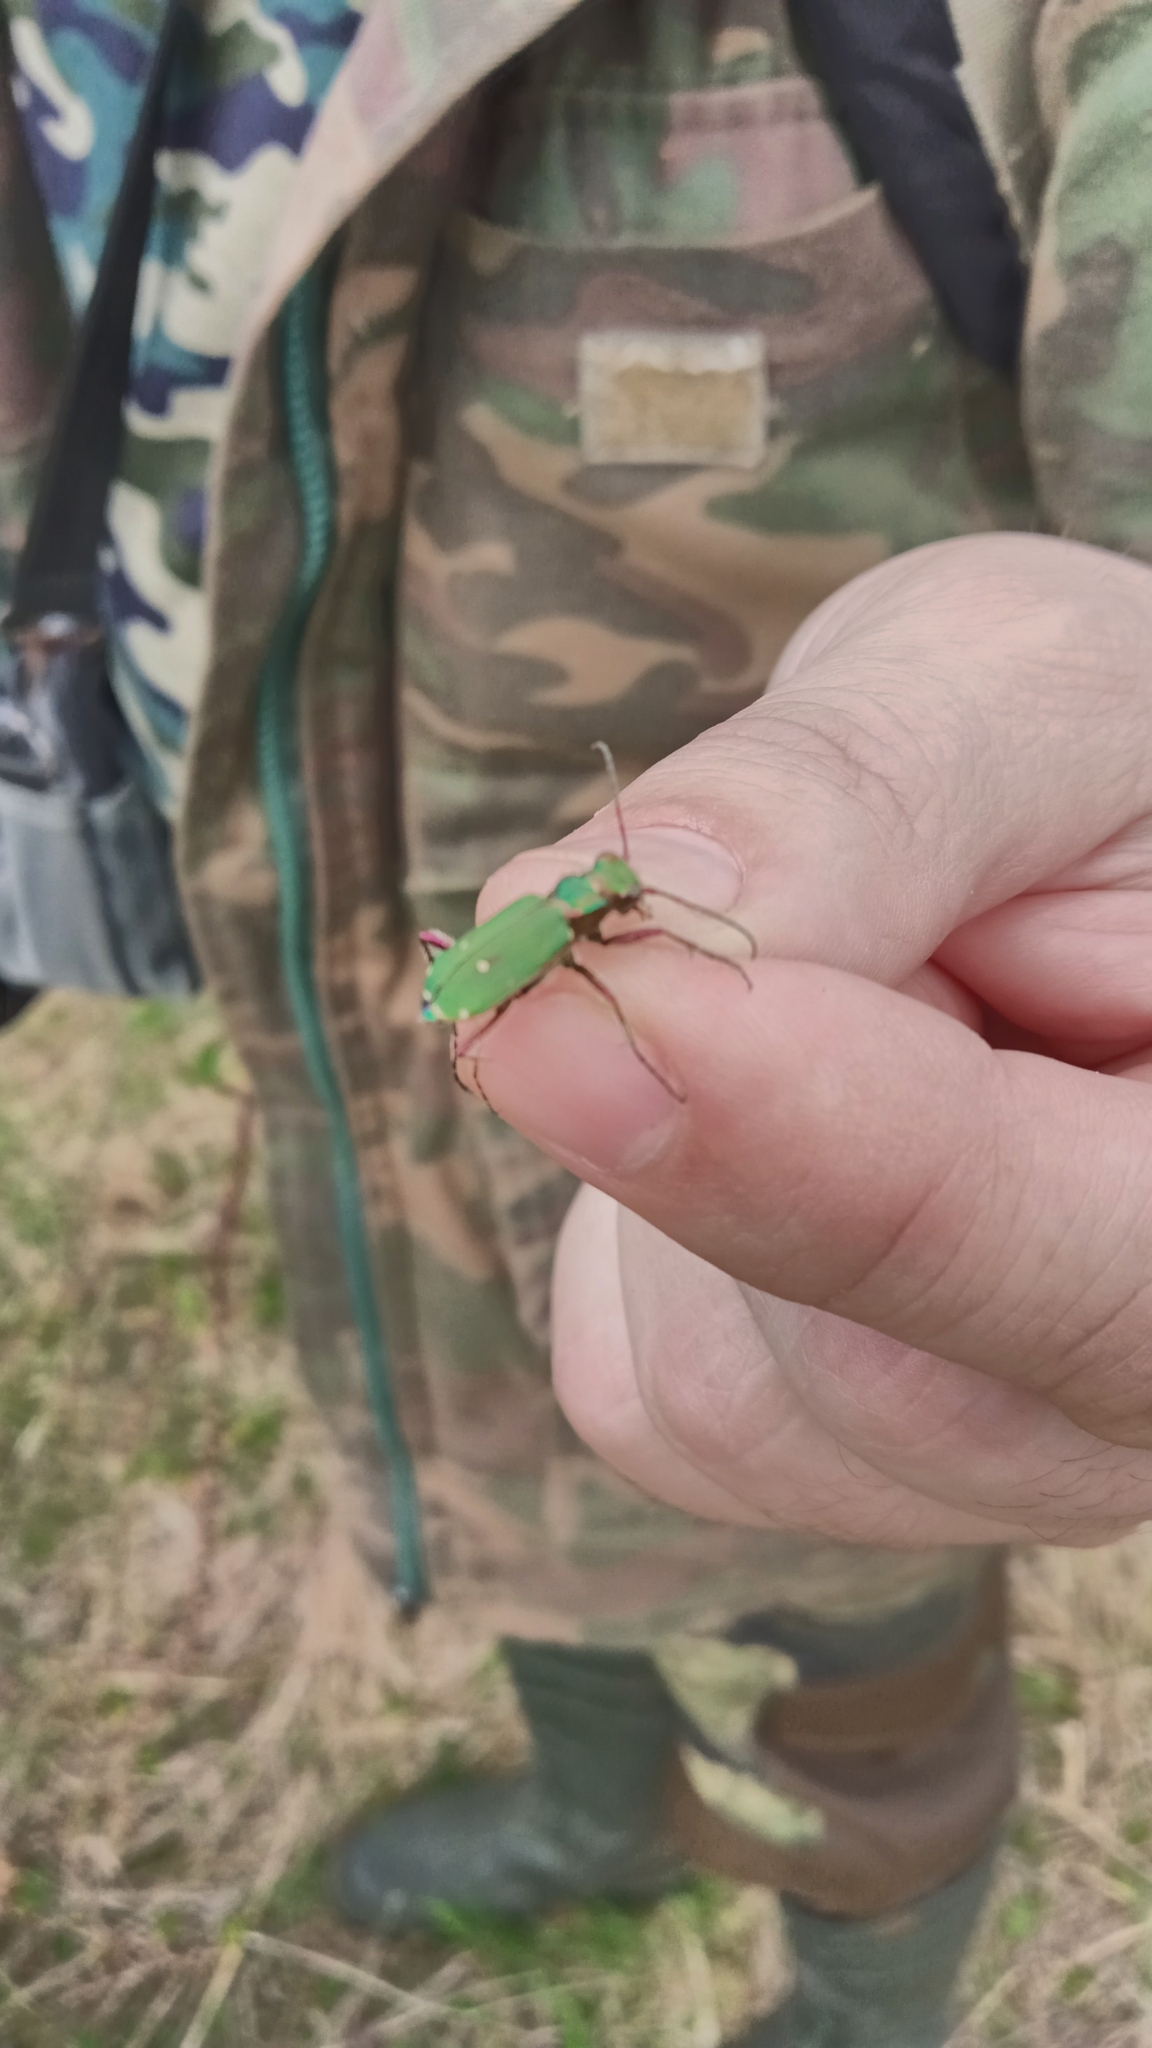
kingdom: Animalia
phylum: Arthropoda
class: Insecta
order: Coleoptera
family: Carabidae
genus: Cicindela
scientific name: Cicindela campestris
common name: Common tiger beetle
